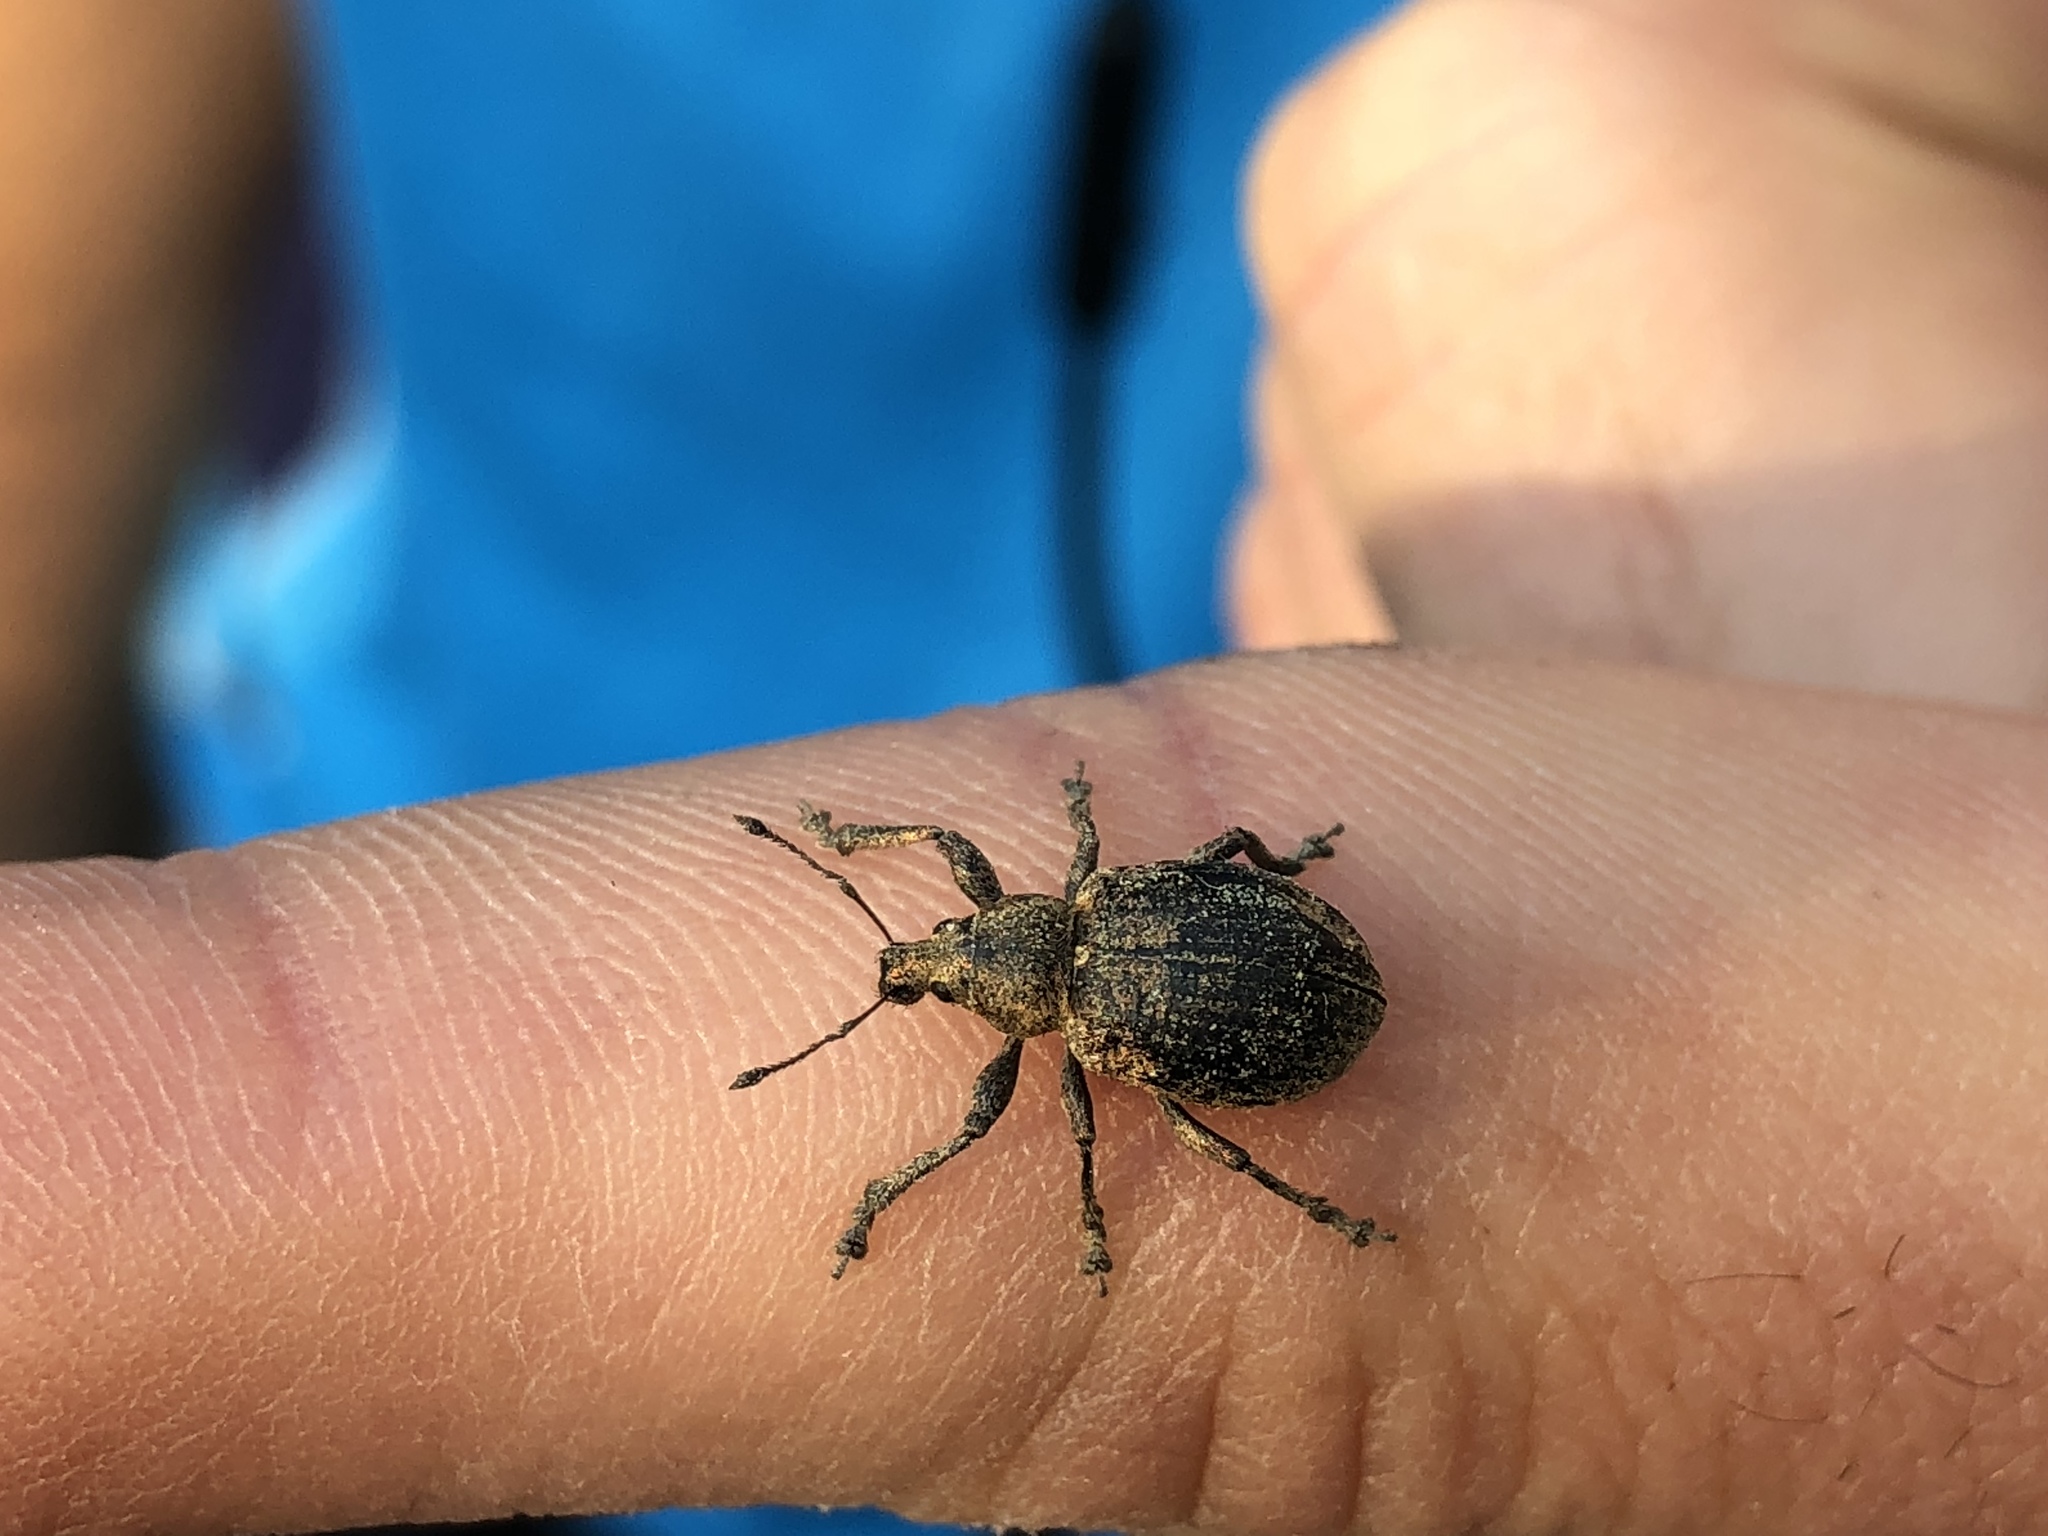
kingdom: Animalia
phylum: Arthropoda
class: Insecta
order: Coleoptera
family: Curculionidae
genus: Liophloeus
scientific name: Liophloeus tessulatus
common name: Weevil
